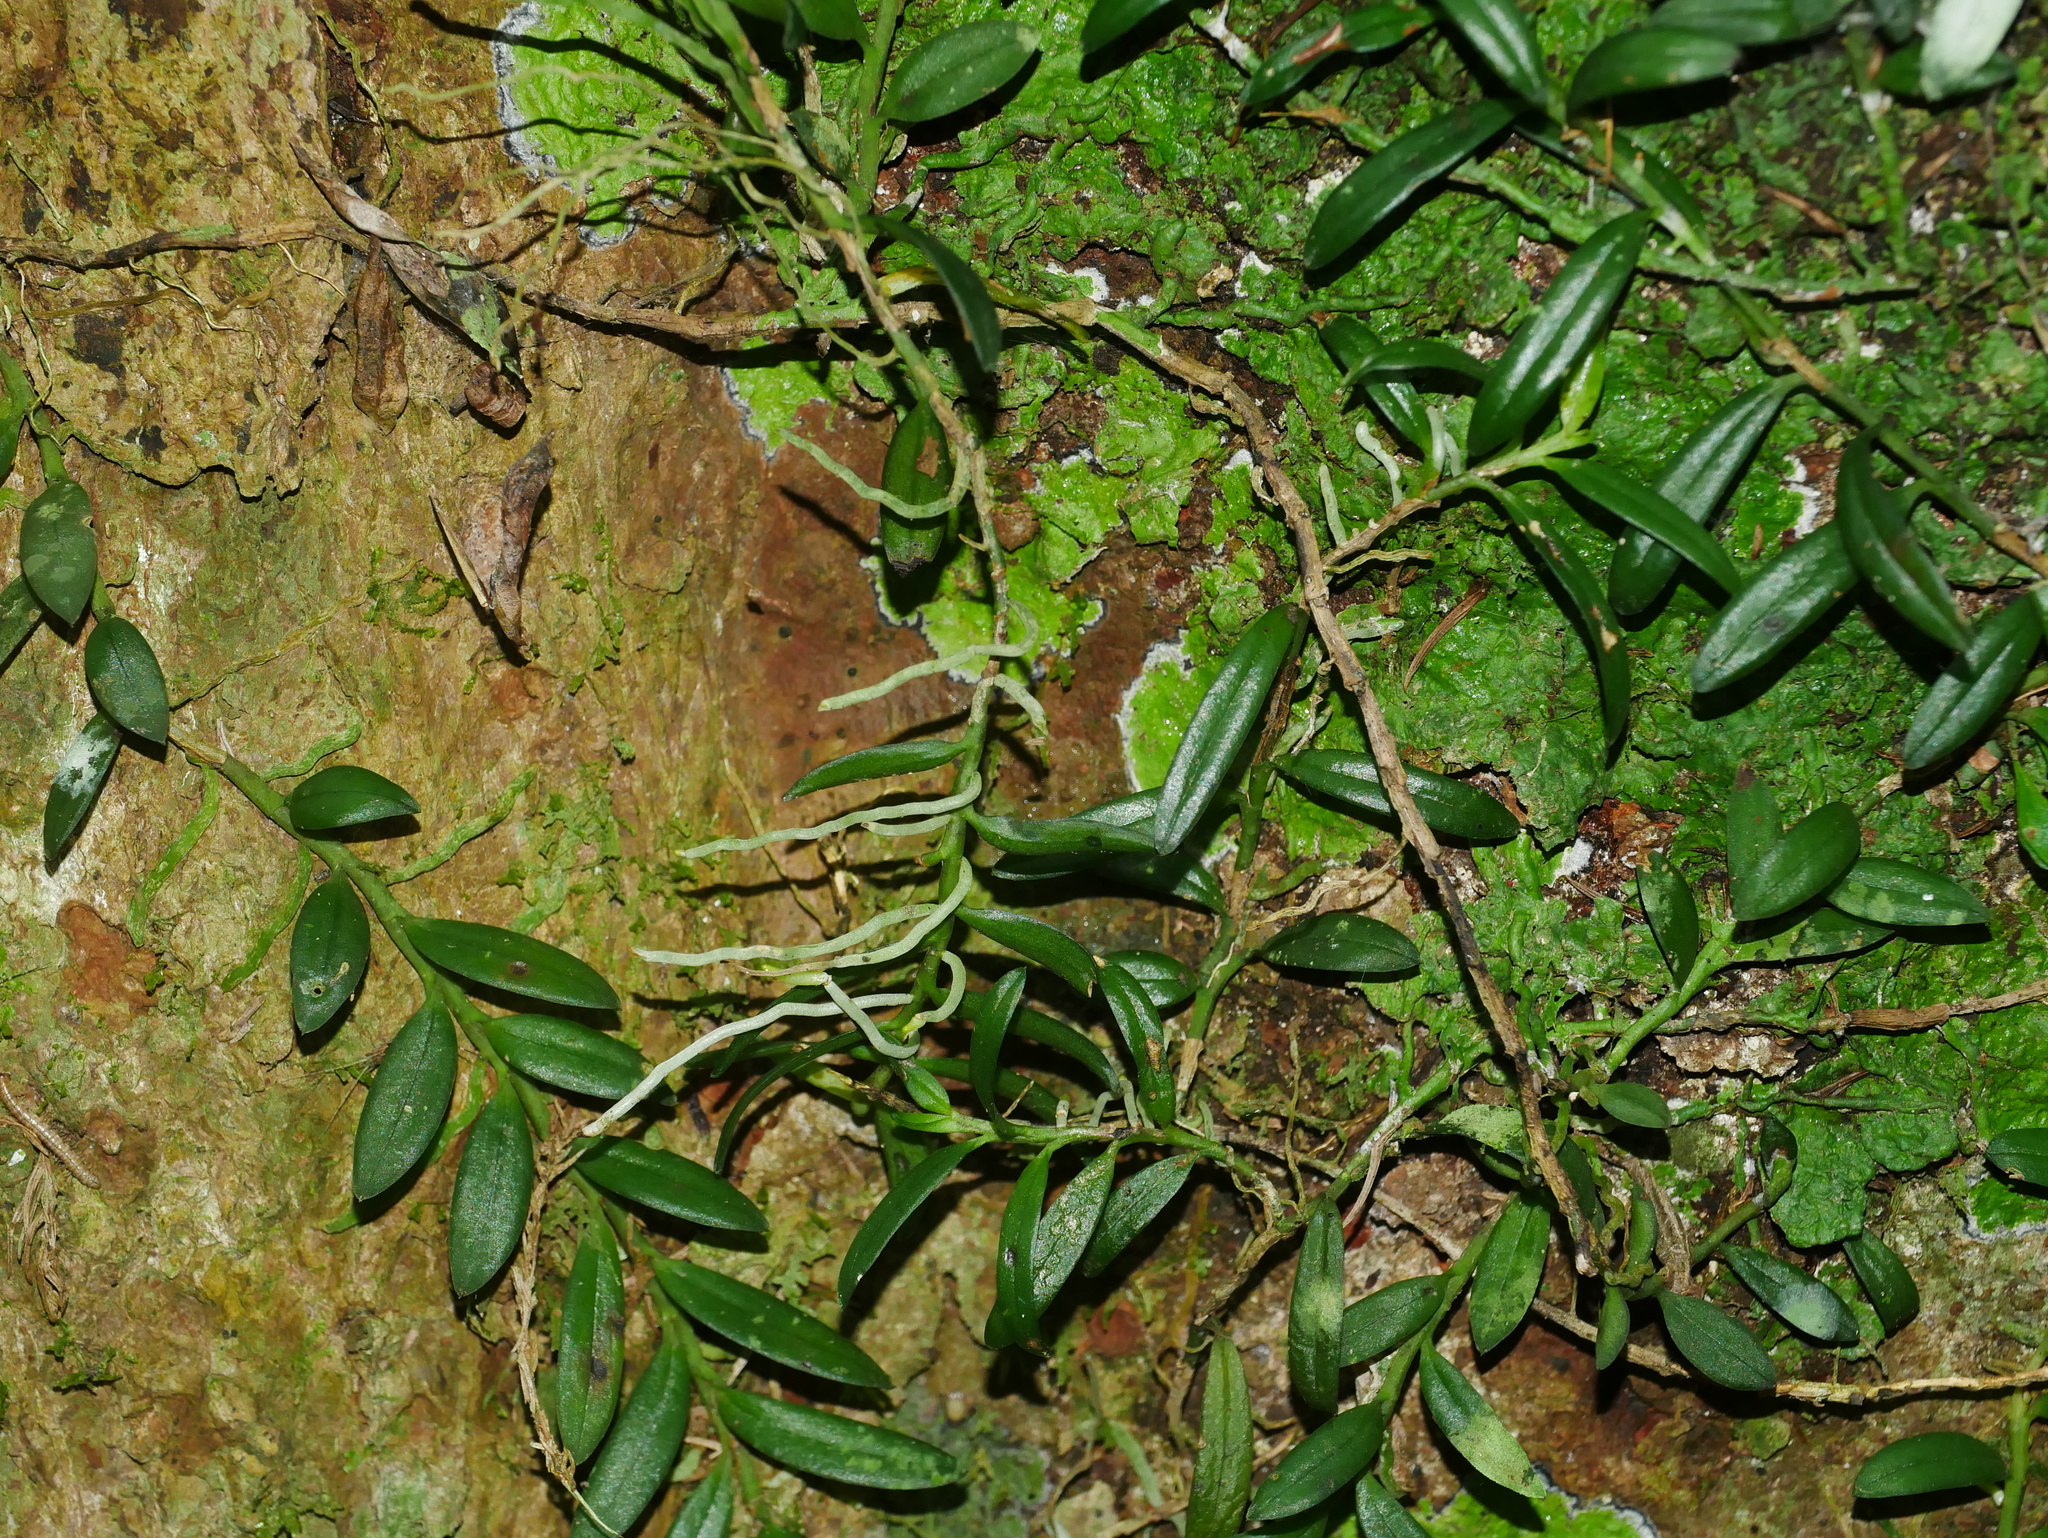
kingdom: Plantae
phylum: Tracheophyta
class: Liliopsida
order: Asparagales
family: Orchidaceae
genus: Gastrochilus
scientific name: Gastrochilus formosanus
